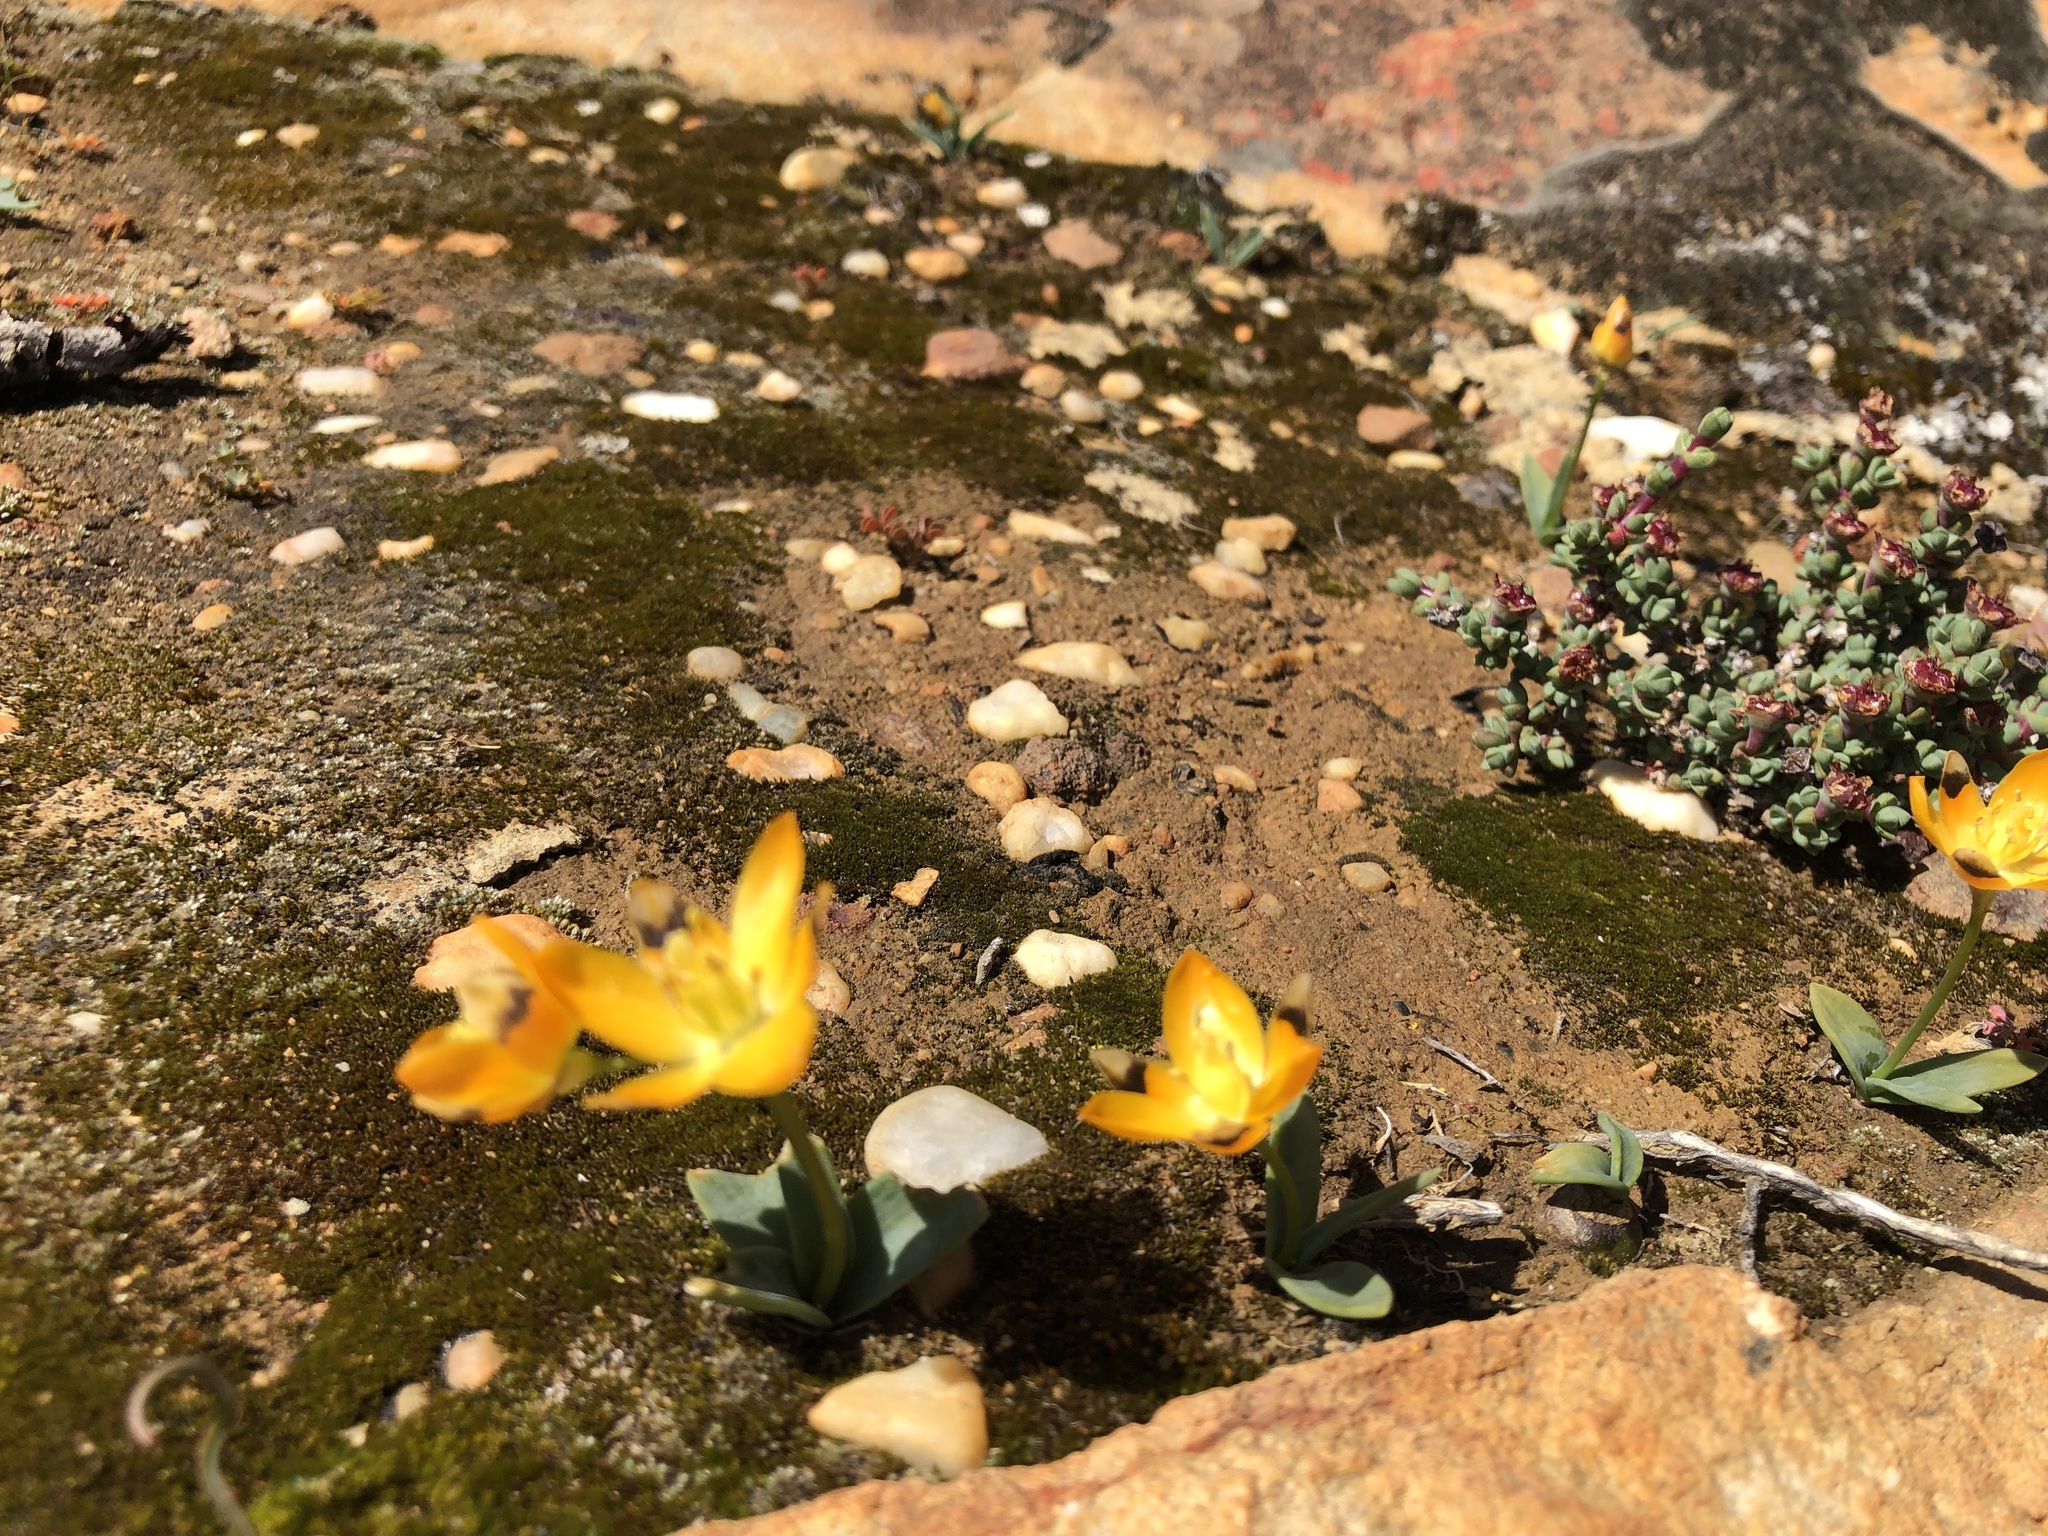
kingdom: Plantae
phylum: Tracheophyta
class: Liliopsida
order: Asparagales
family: Asparagaceae
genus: Ornithogalum
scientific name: Ornithogalum maculatum
